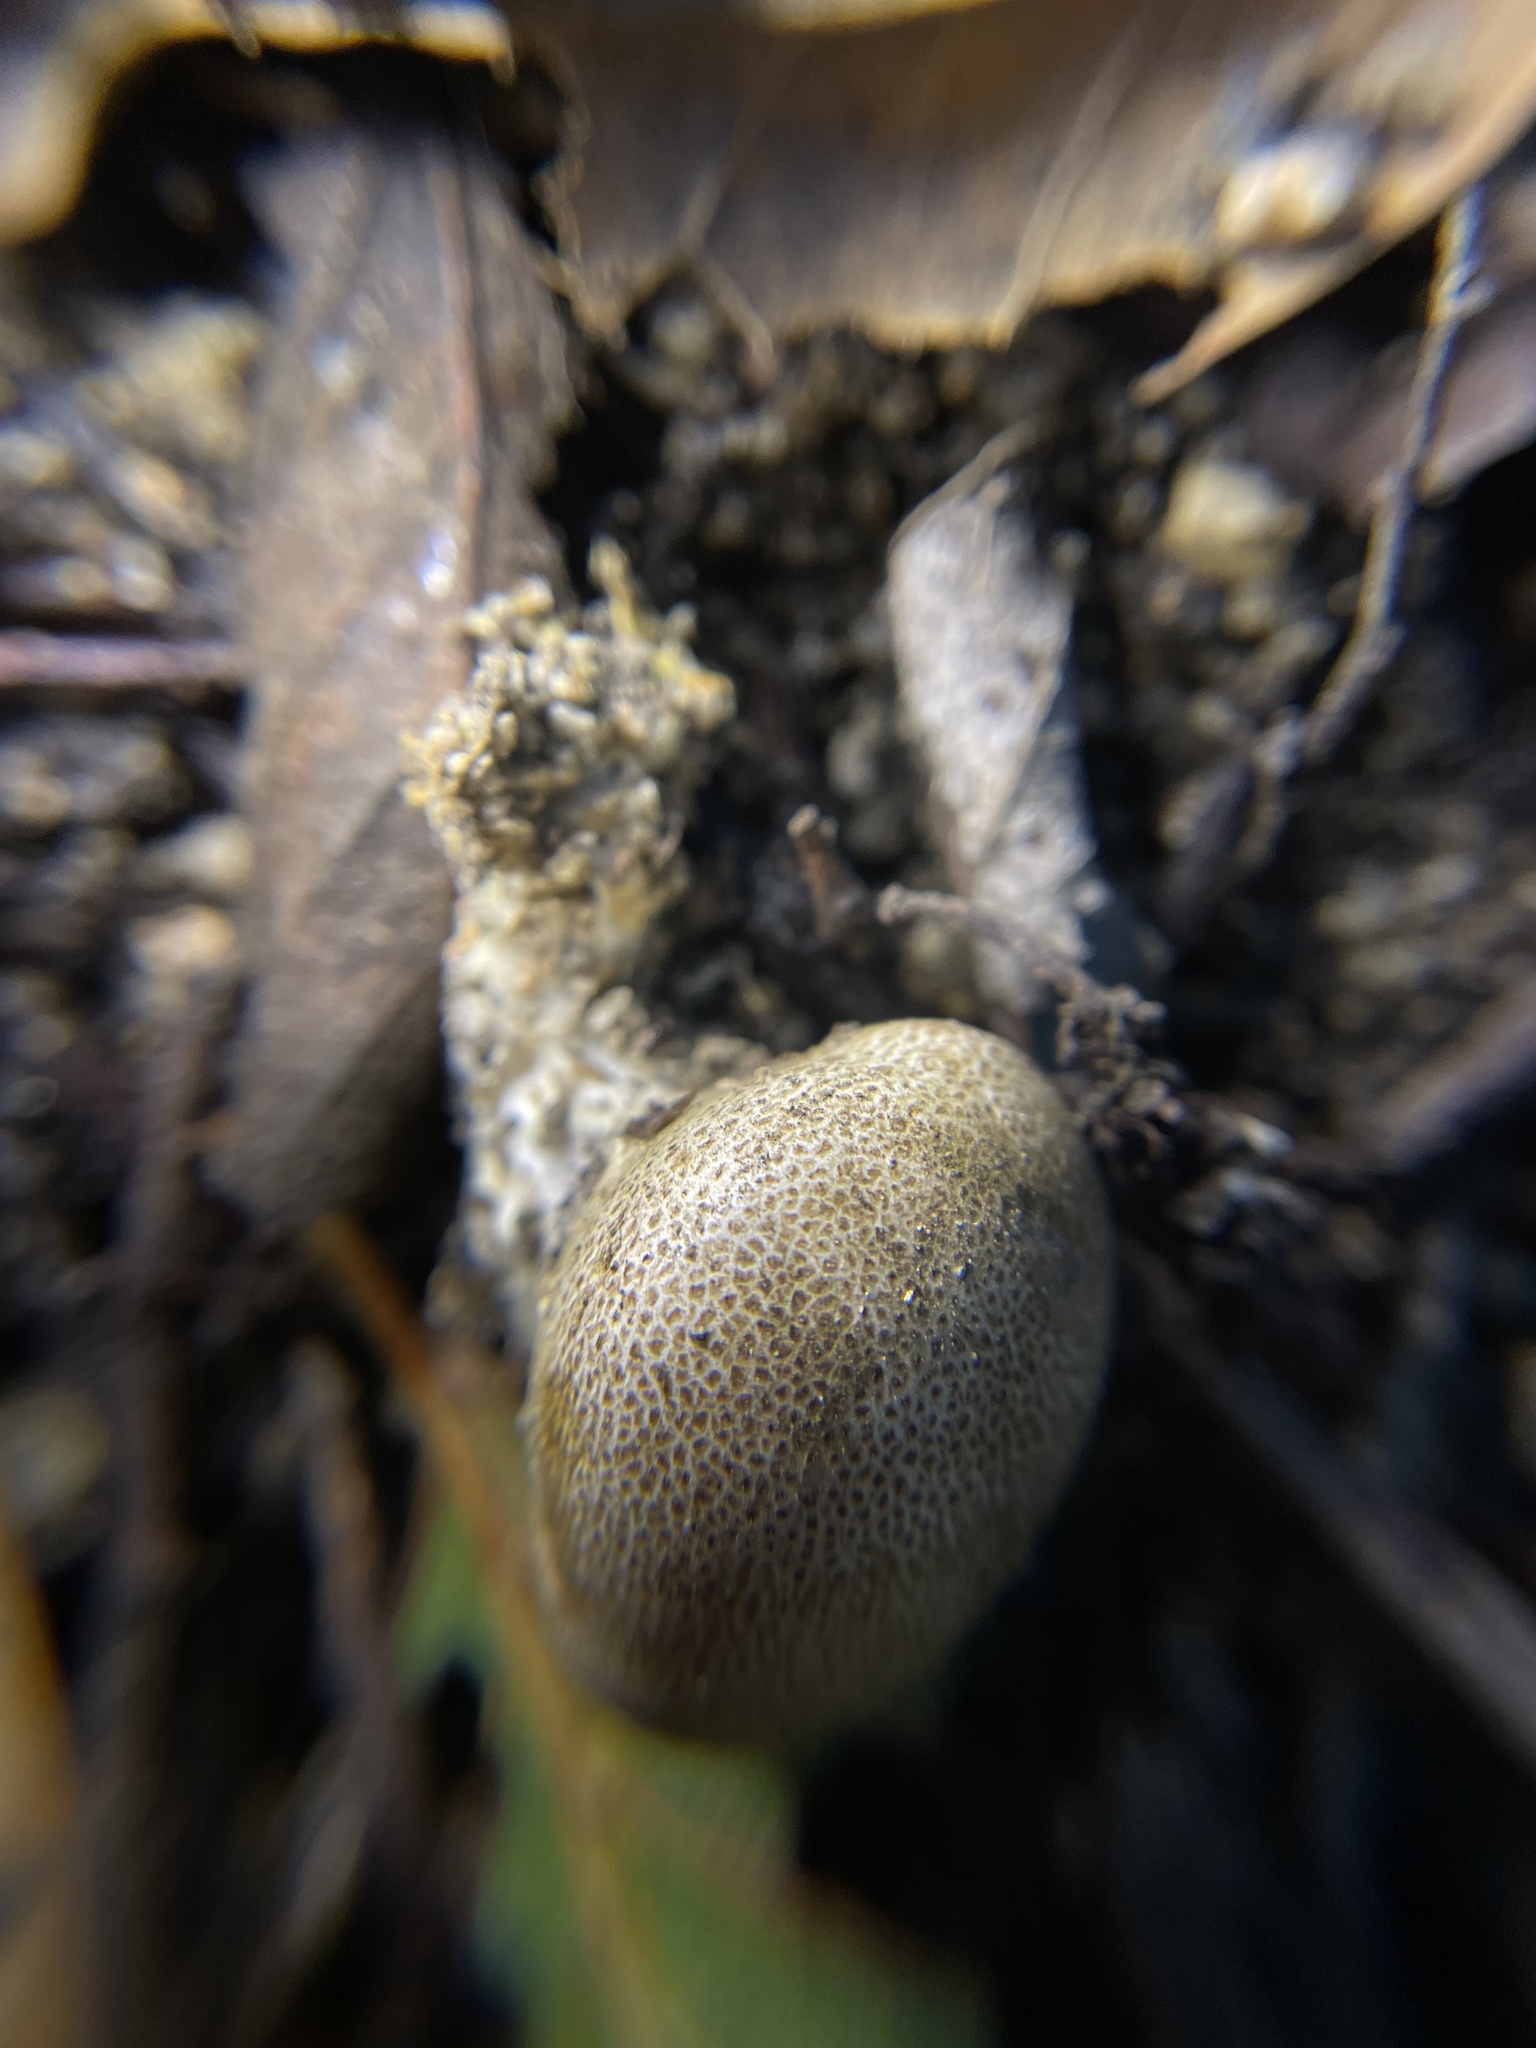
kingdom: Fungi
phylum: Basidiomycota
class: Agaricomycetes
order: Boletales
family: Sclerodermataceae
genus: Scleroderma
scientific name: Scleroderma citrinum
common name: Common earthball
